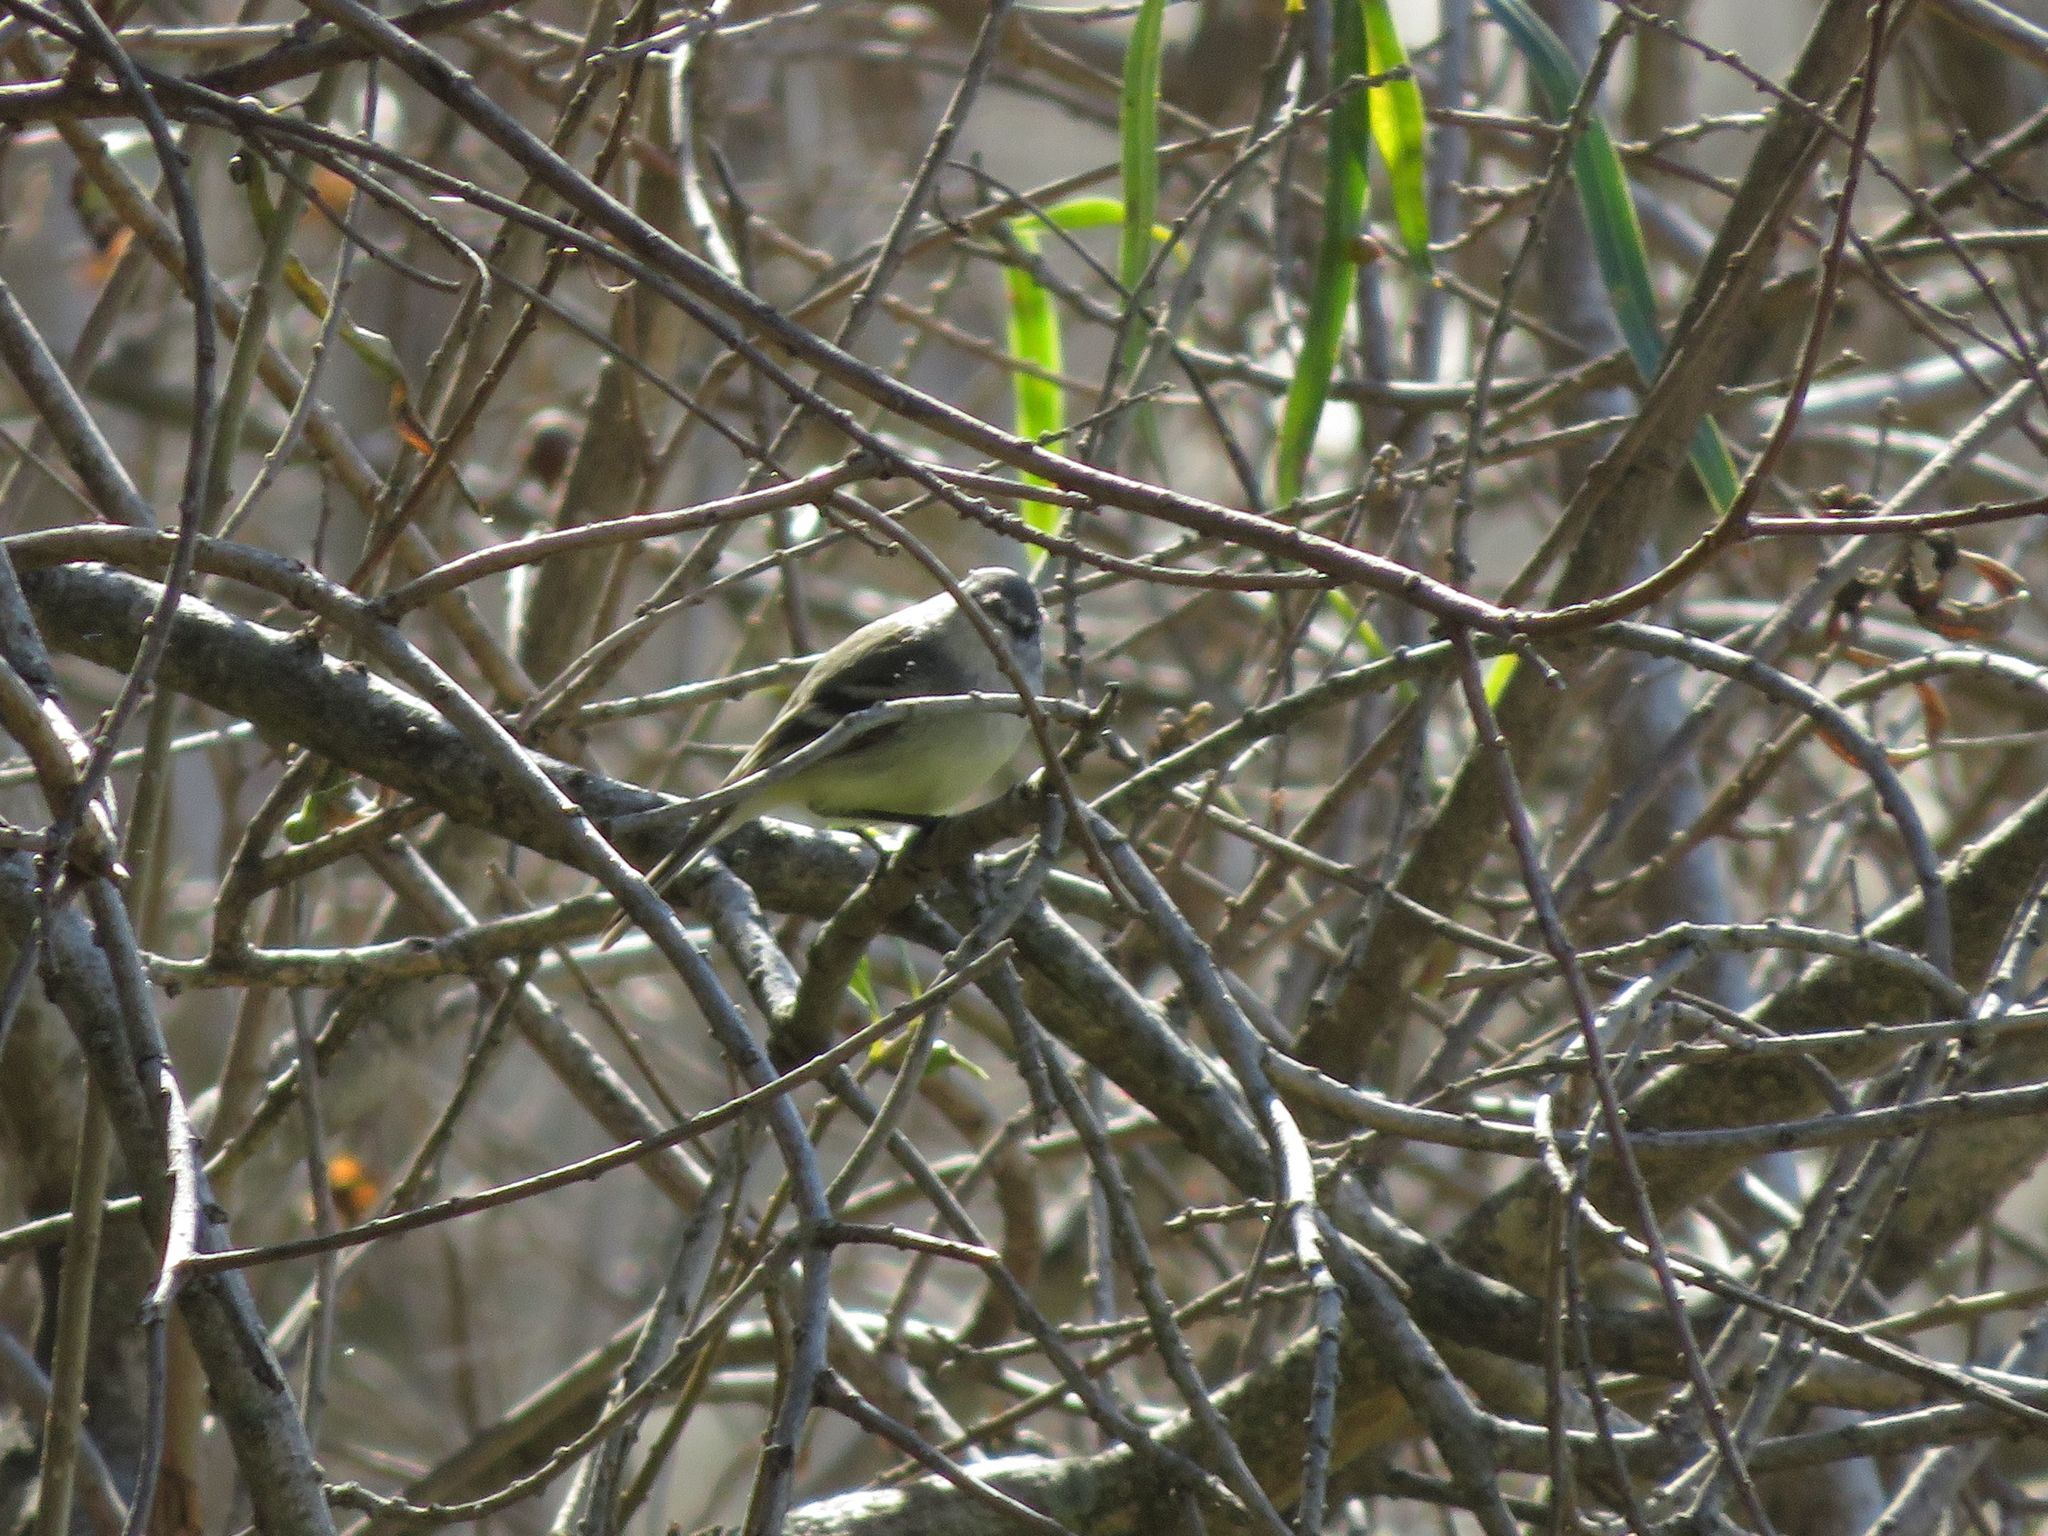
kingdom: Animalia
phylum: Chordata
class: Aves
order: Passeriformes
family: Tyrannidae
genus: Serpophaga
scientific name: Serpophaga subcristata
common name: White-crested tyrannulet
